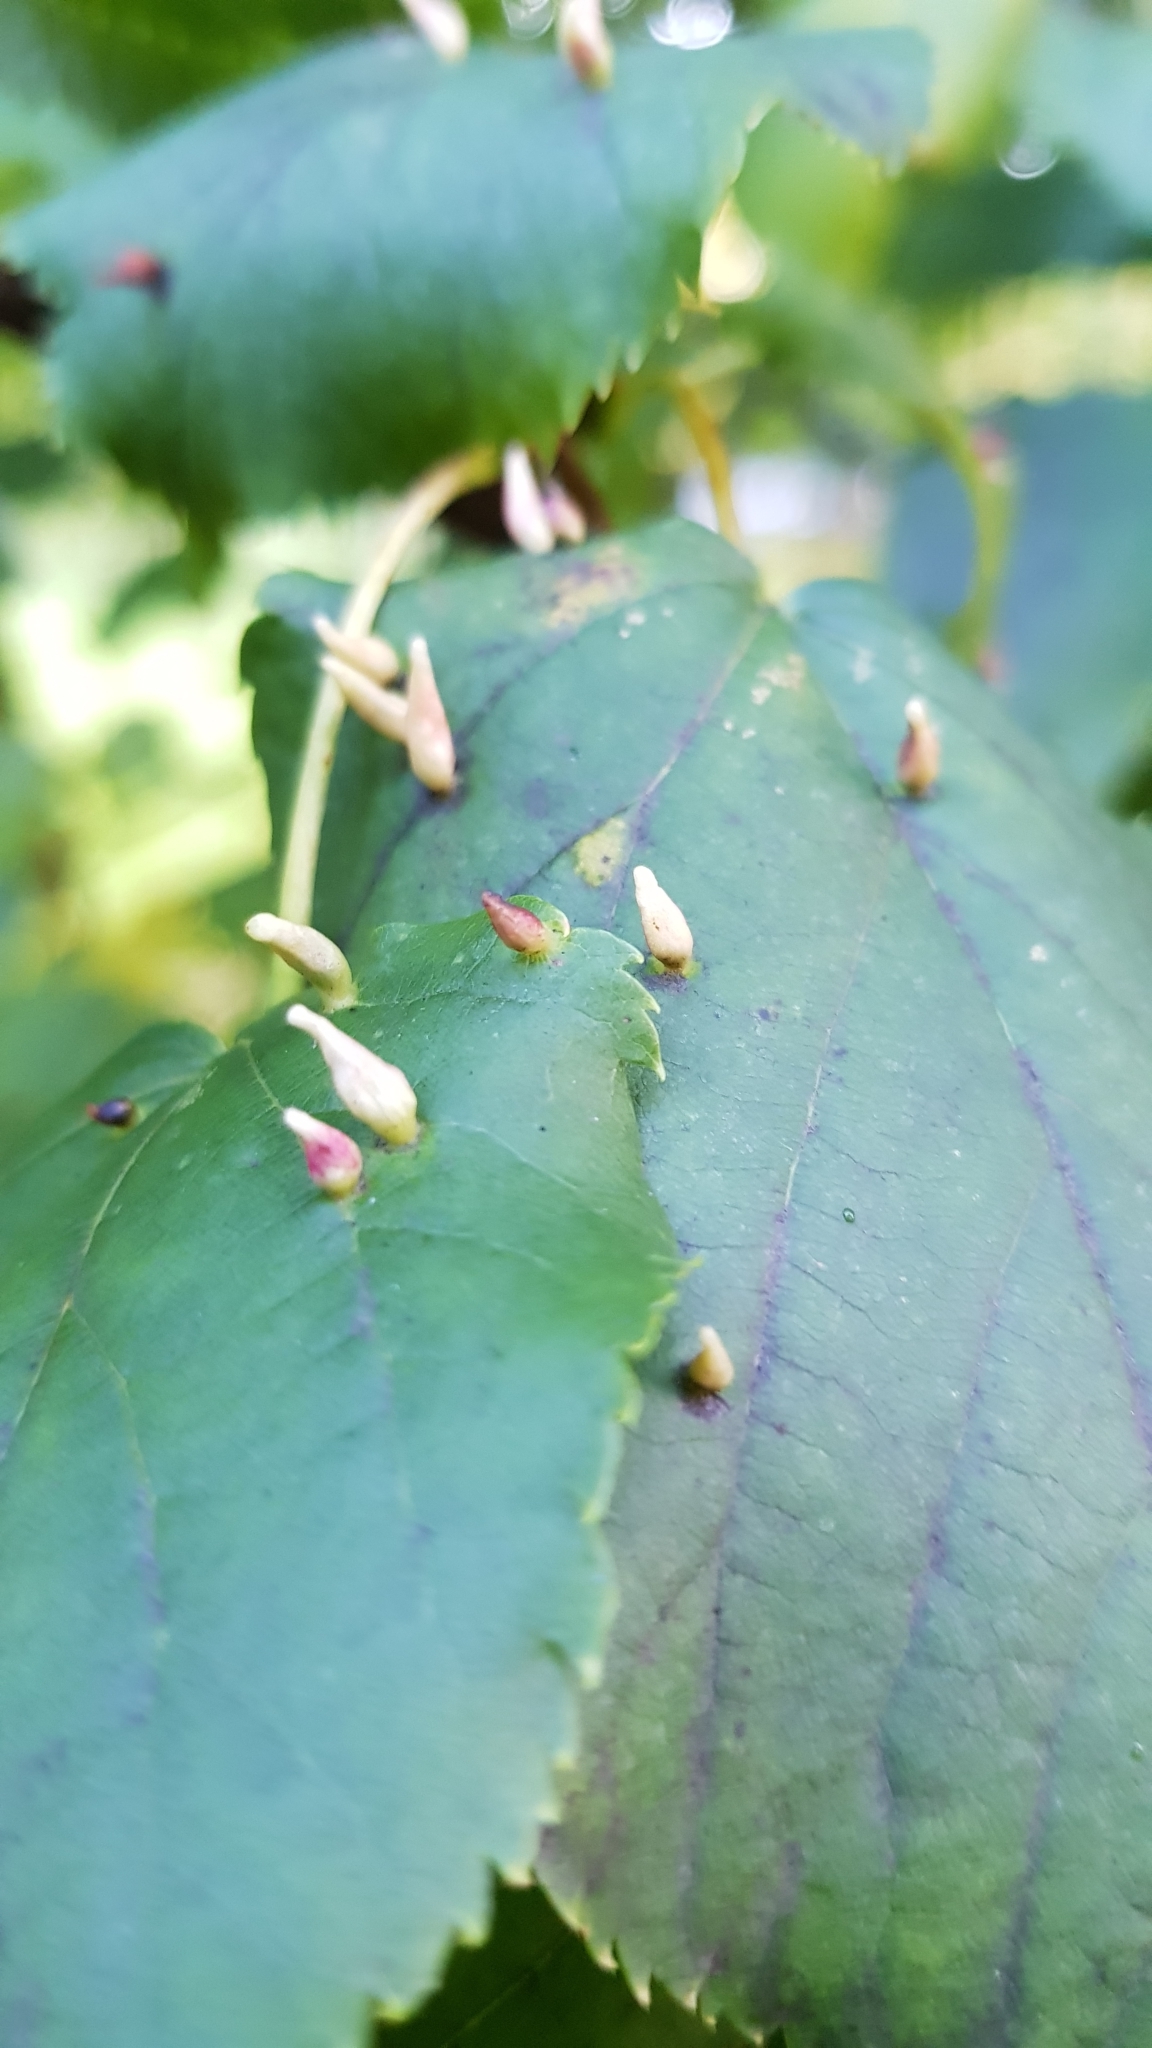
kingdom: Animalia
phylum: Arthropoda
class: Arachnida
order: Trombidiformes
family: Eriophyidae
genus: Eriophyes
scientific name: Eriophyes tiliae
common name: Red nail gall mite
